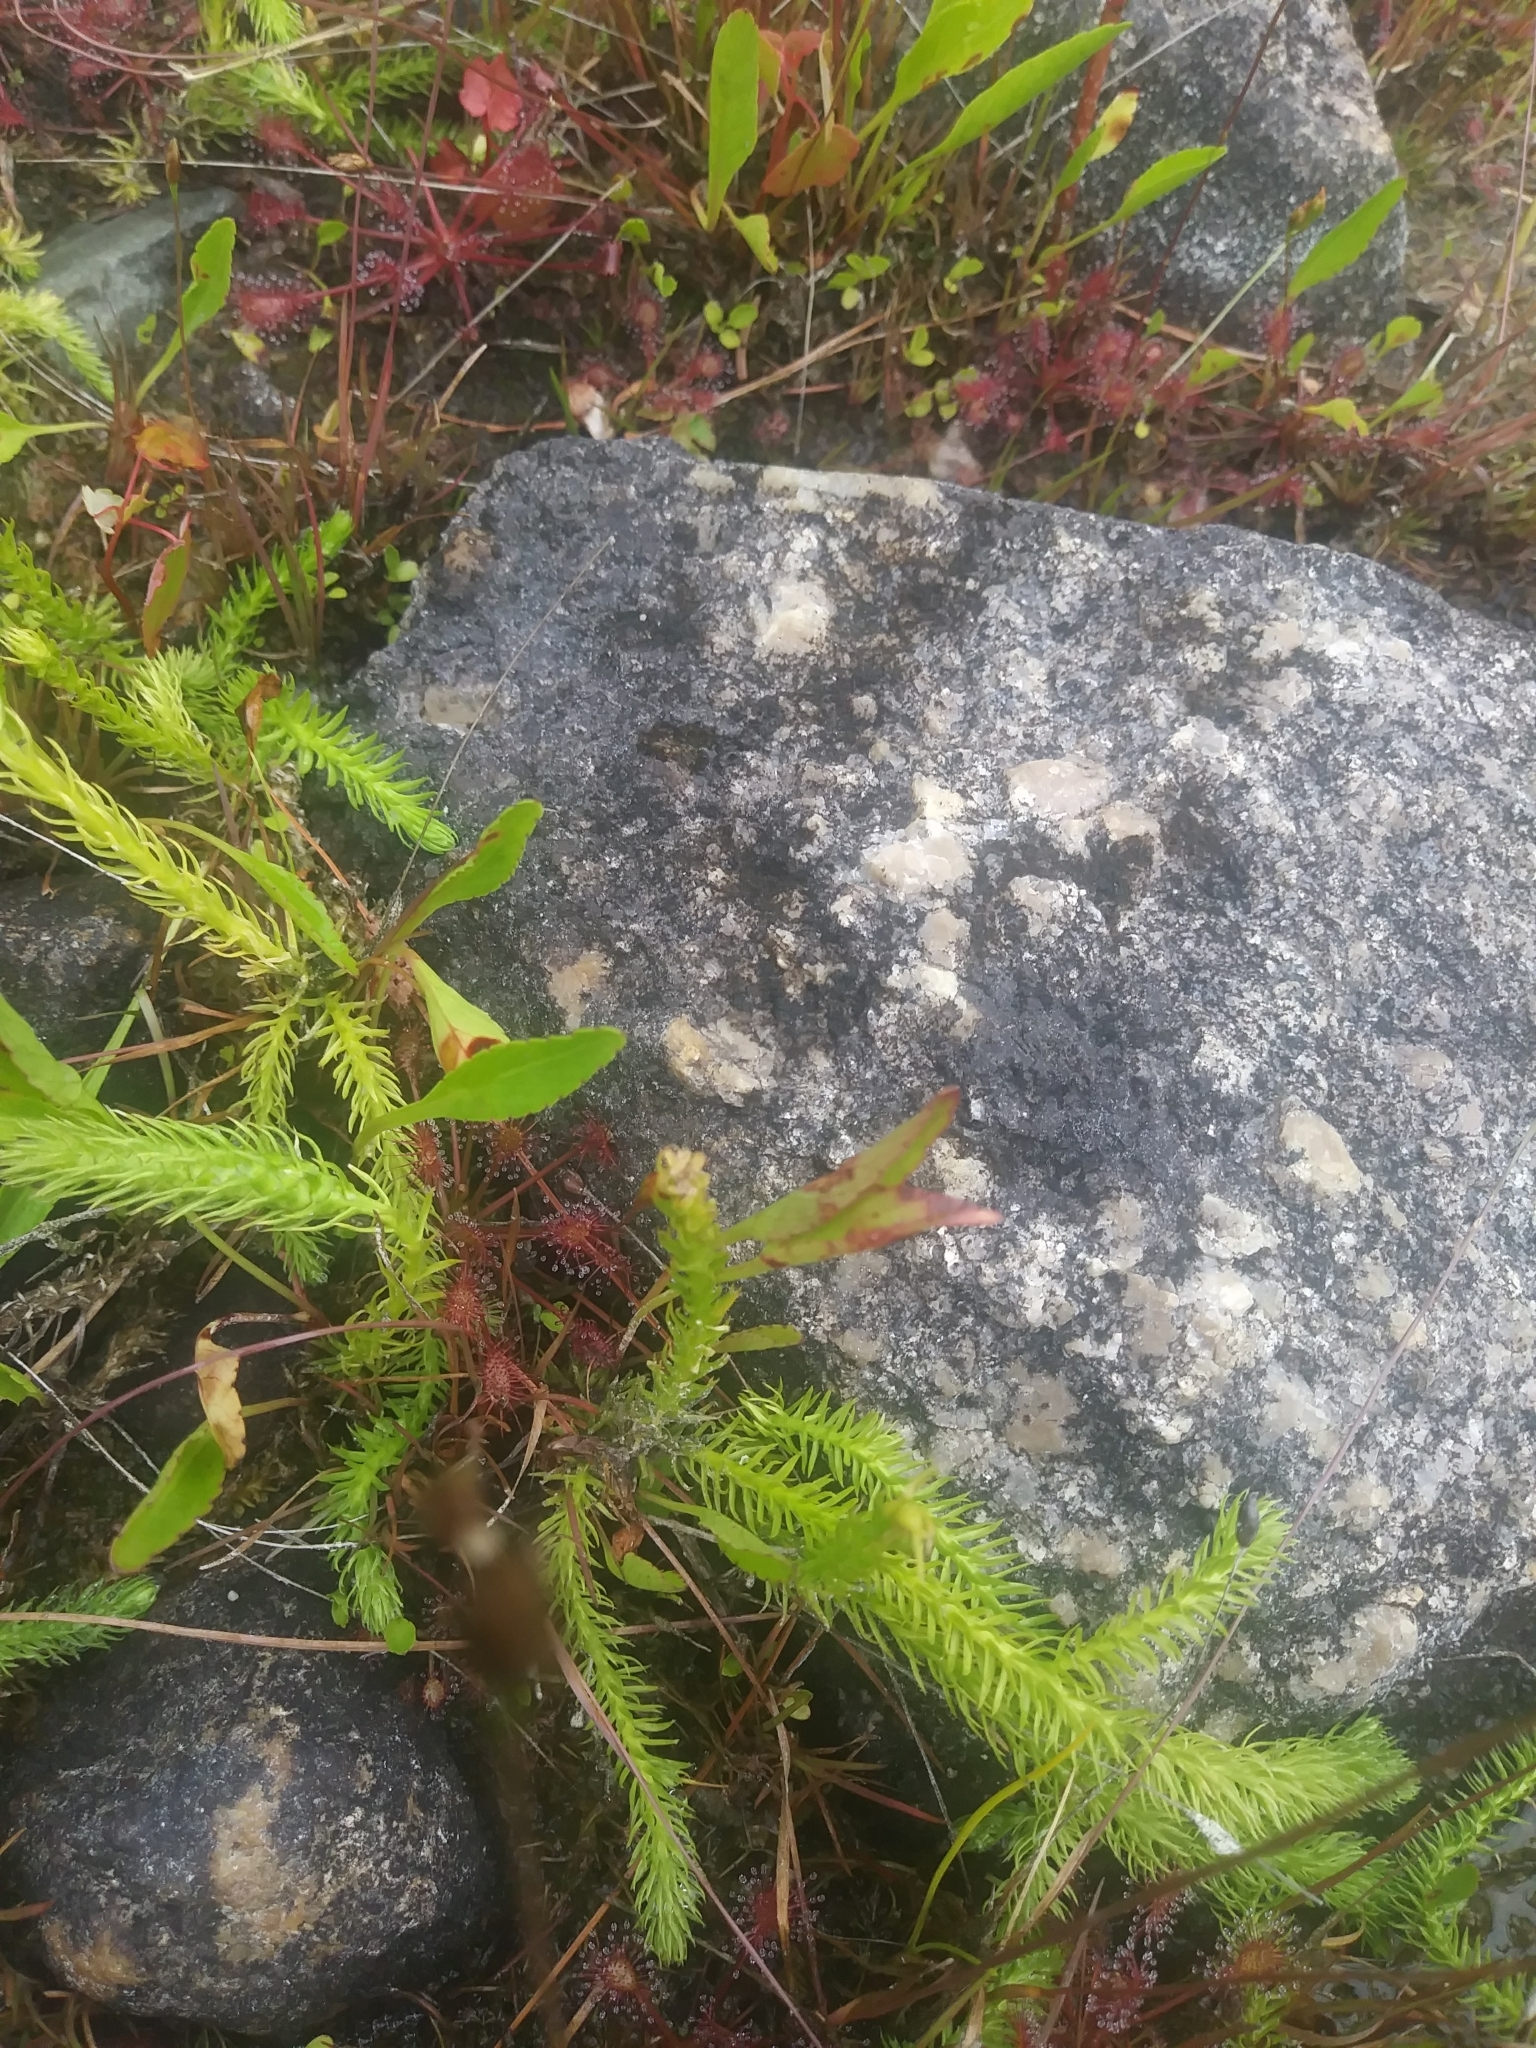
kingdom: Plantae
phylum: Tracheophyta
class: Lycopodiopsida
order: Lycopodiales
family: Lycopodiaceae
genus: Lycopodiella
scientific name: Lycopodiella inundata
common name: Marsh clubmoss
